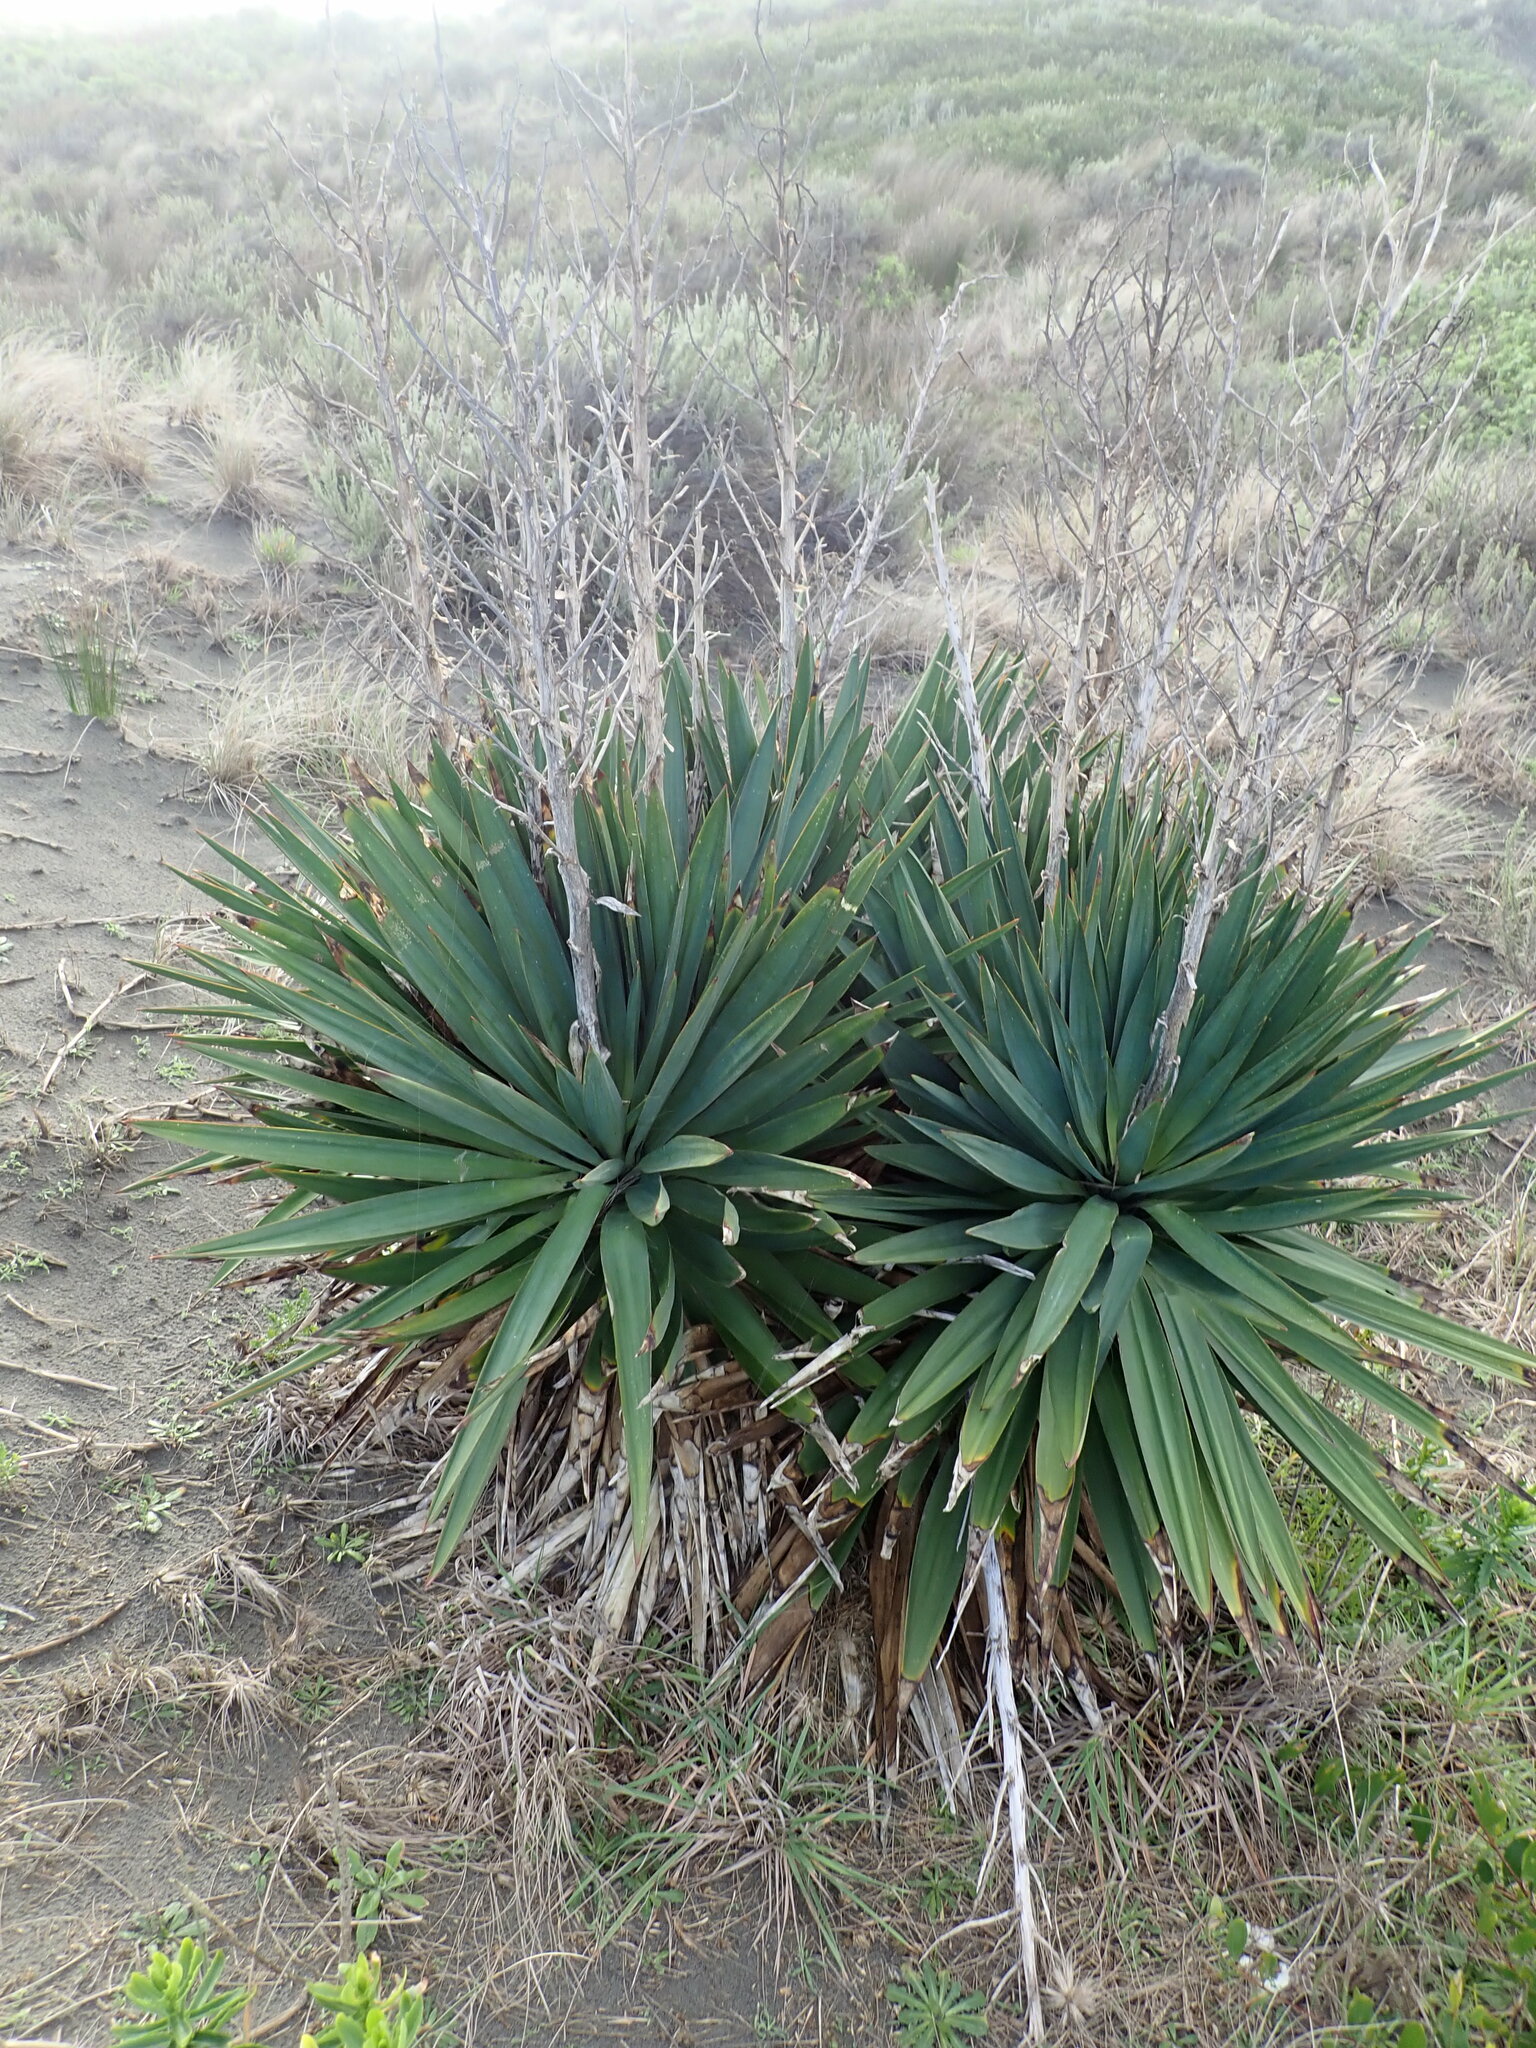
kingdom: Plantae
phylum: Tracheophyta
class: Liliopsida
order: Asparagales
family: Asparagaceae
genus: Yucca
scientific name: Yucca gloriosa
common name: Spanish-dagger
